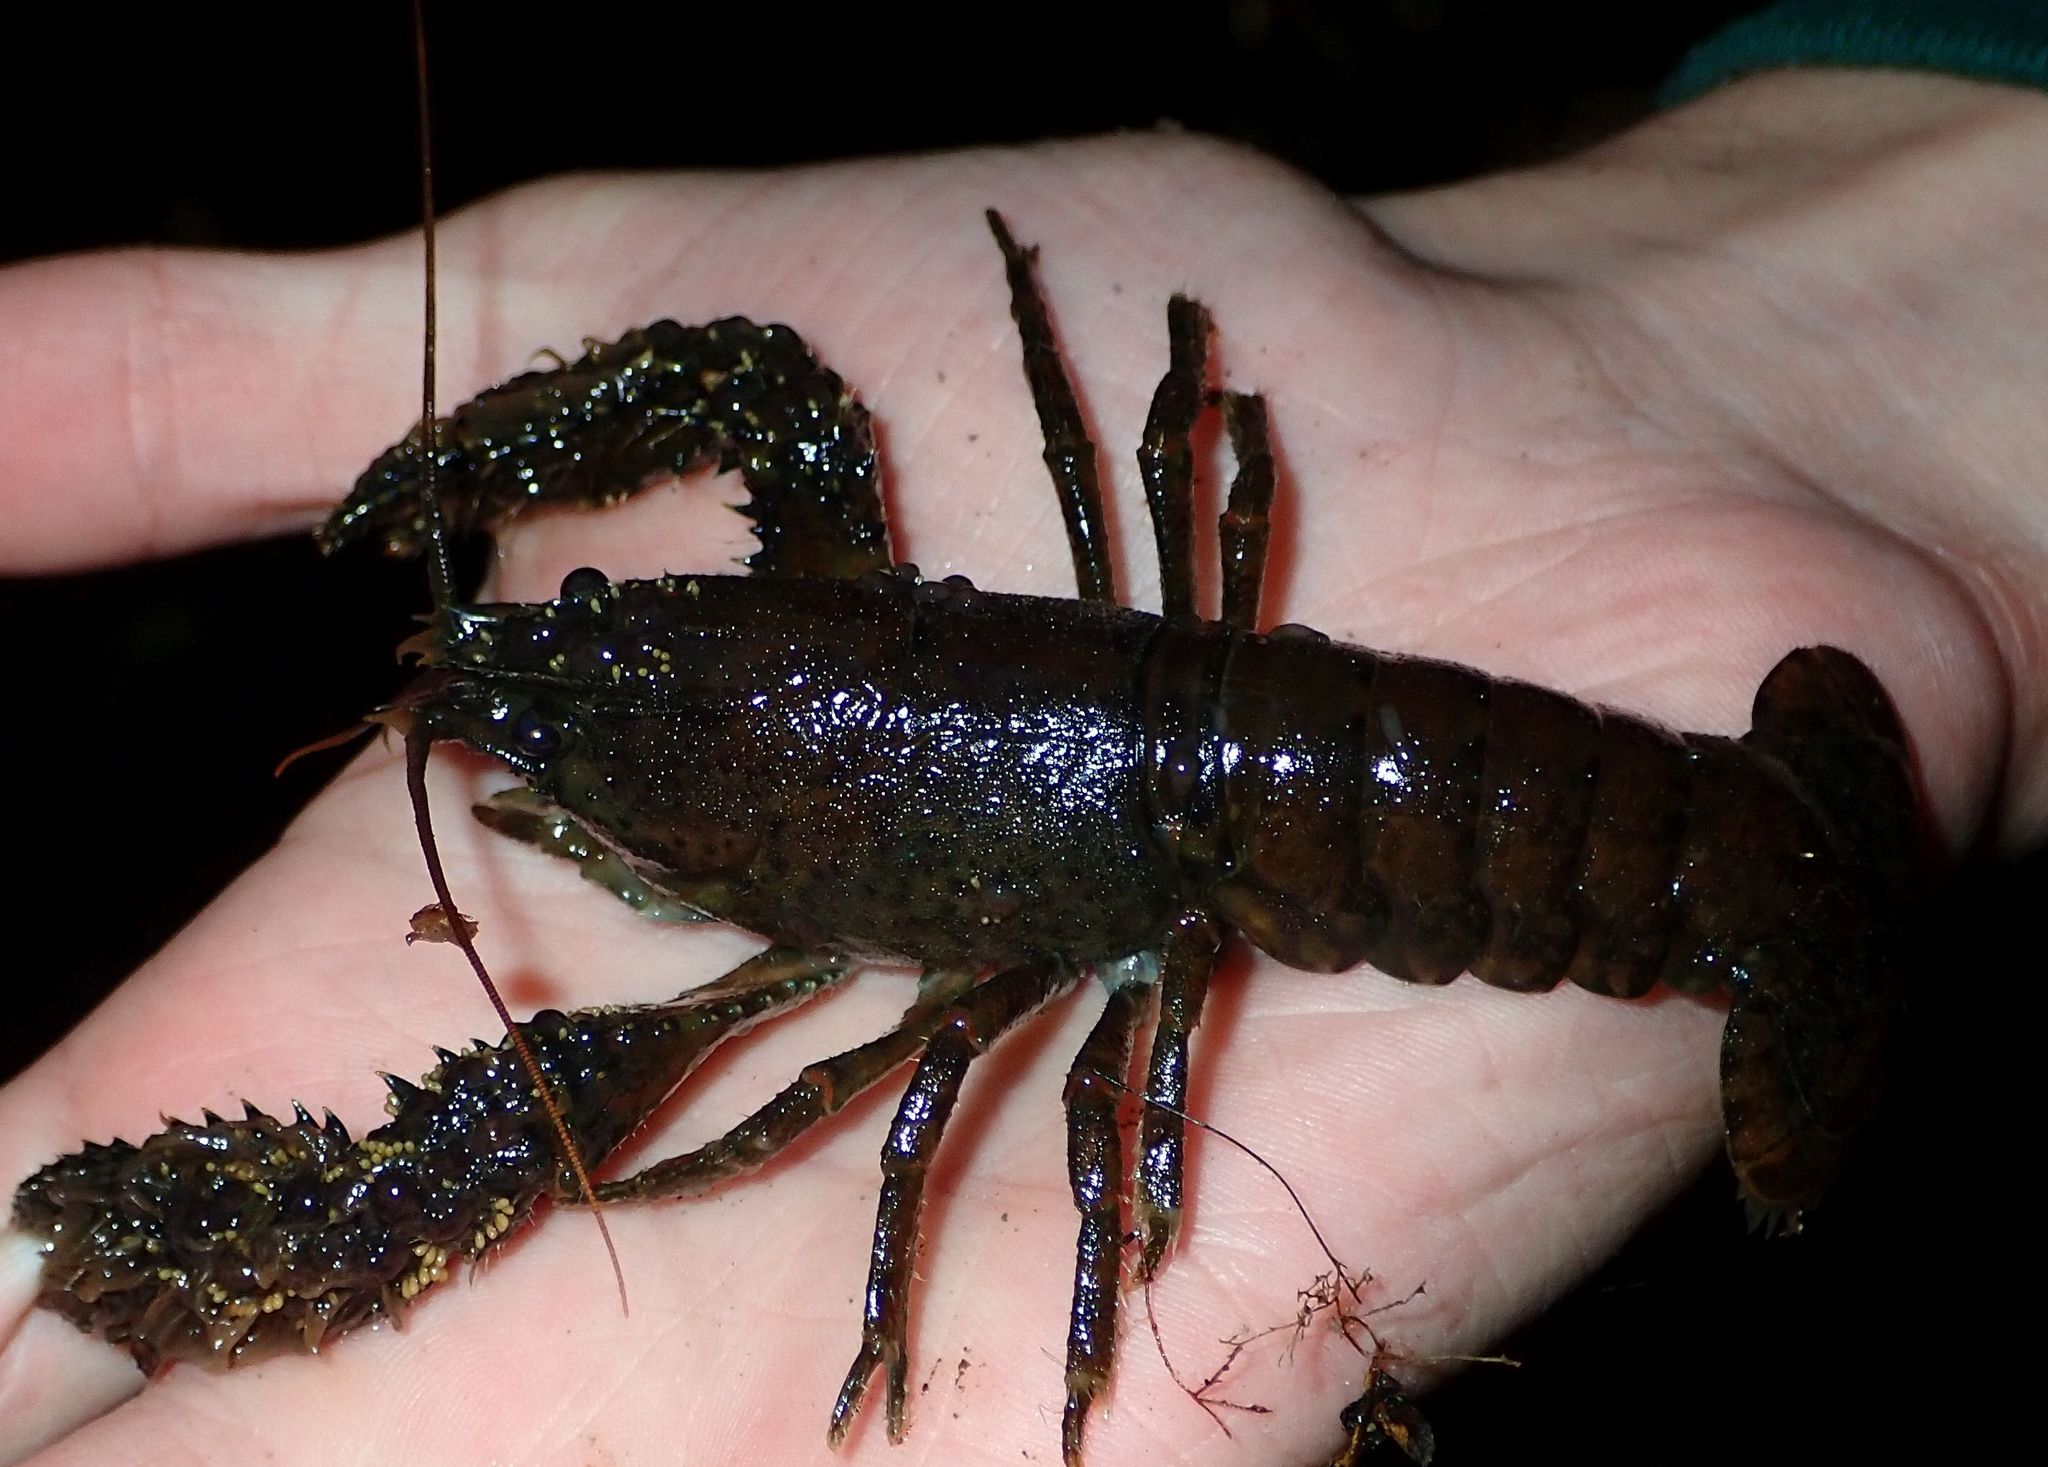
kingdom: Animalia
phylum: Arthropoda
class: Malacostraca
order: Decapoda
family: Parastacidae
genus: Paranephrops
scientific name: Paranephrops zealandicus
